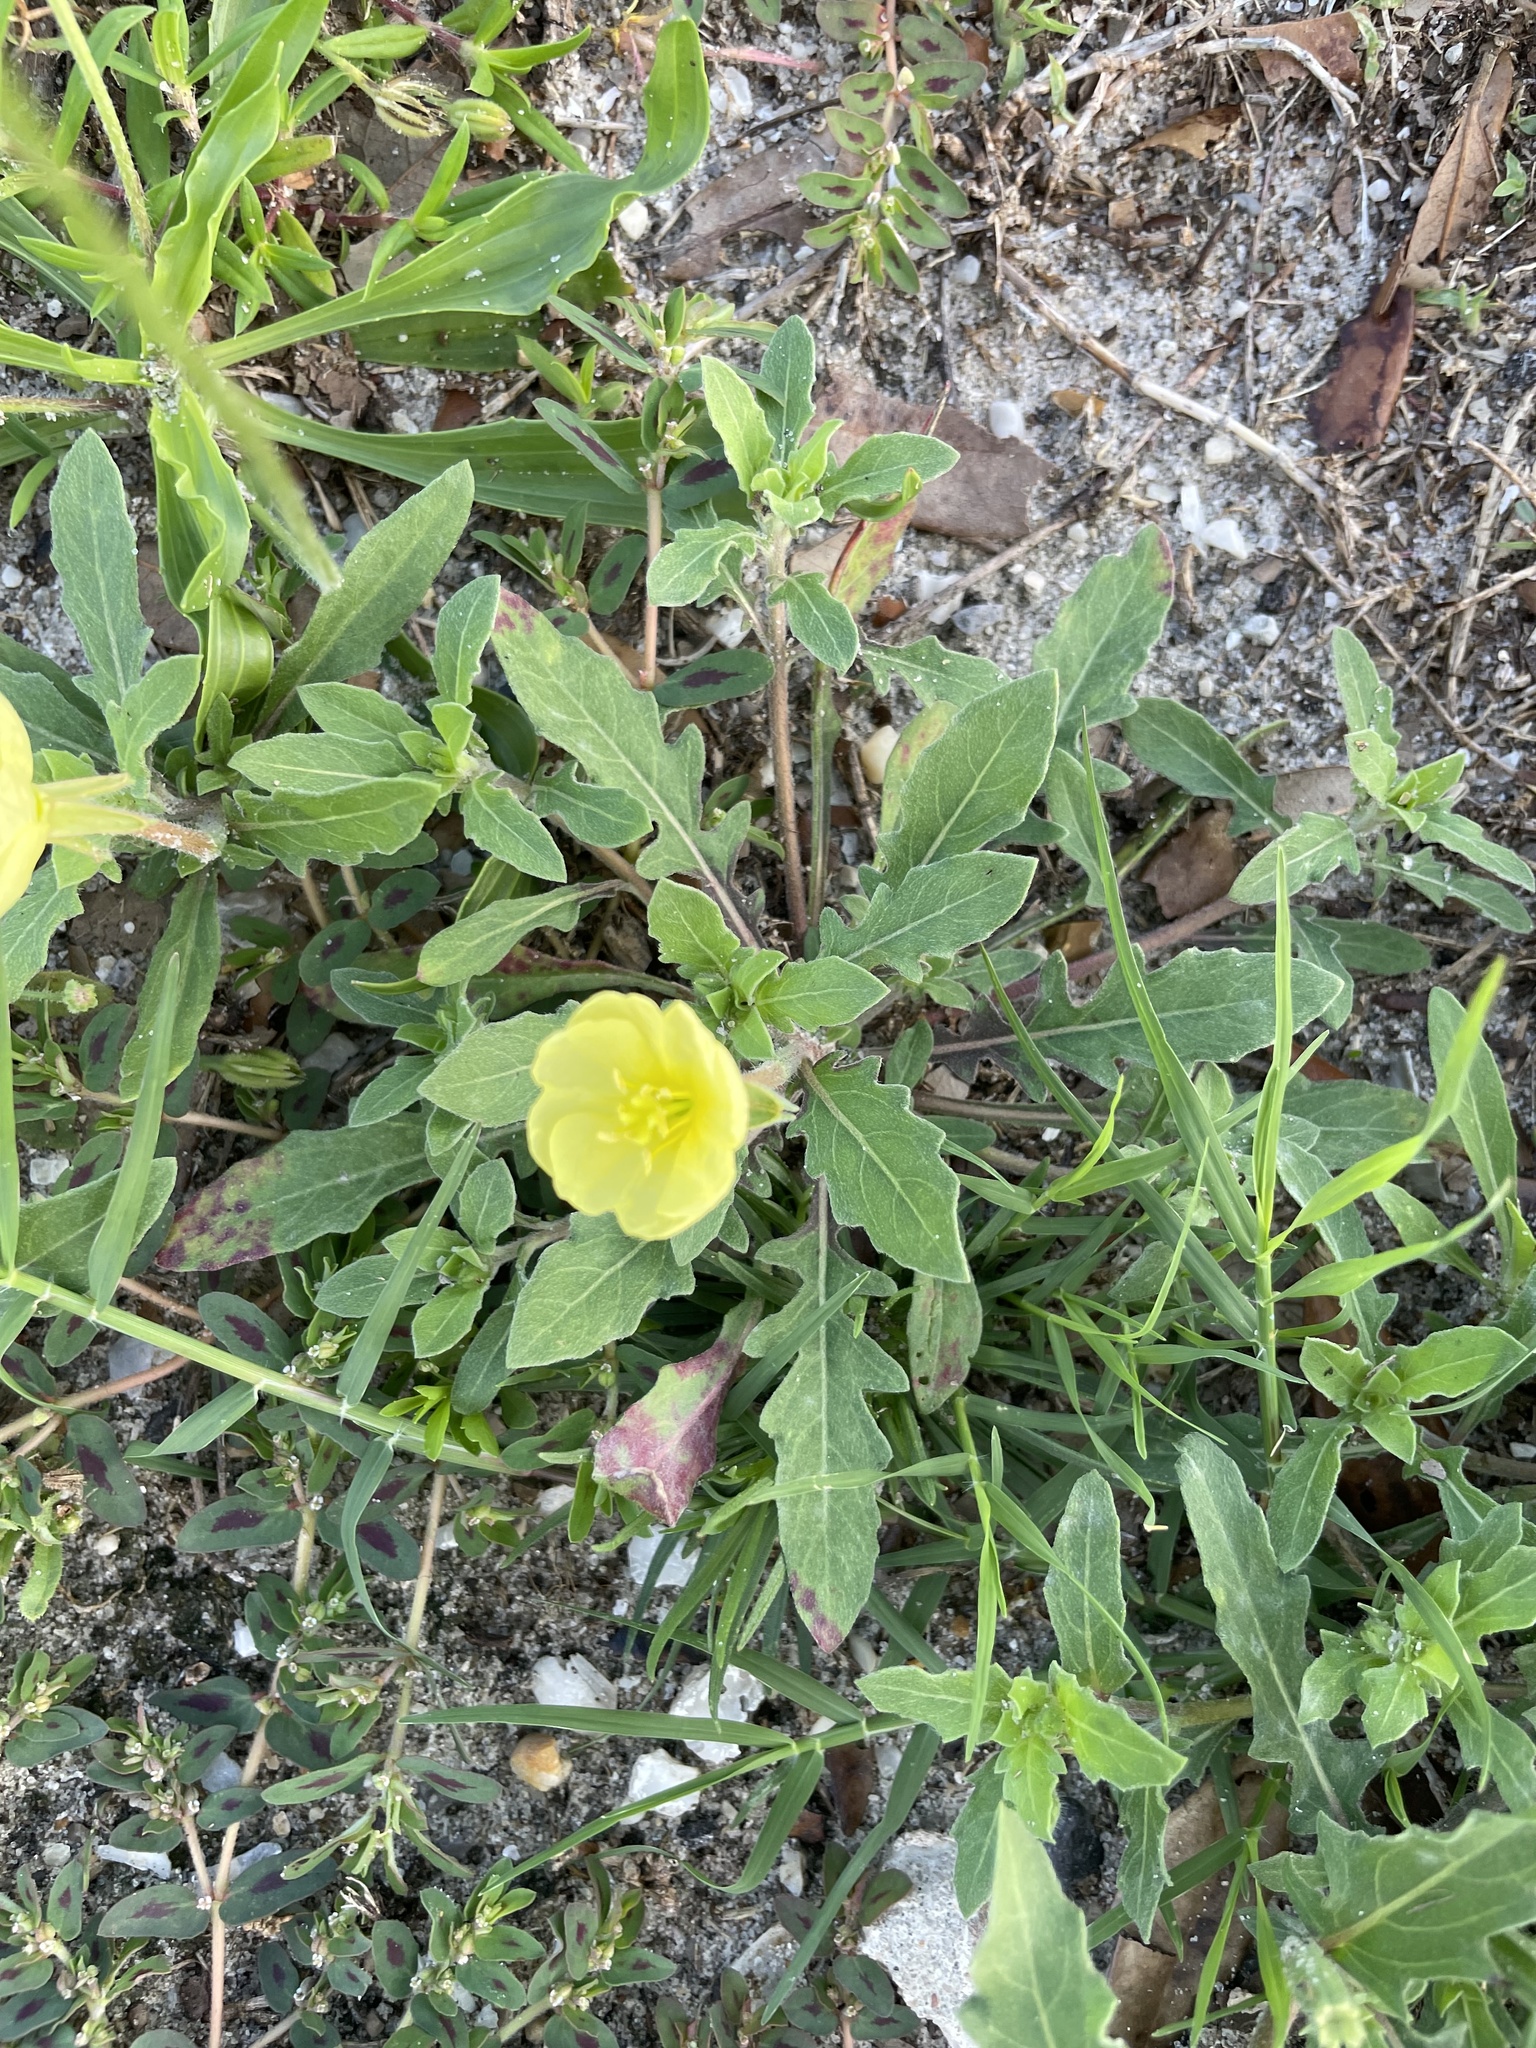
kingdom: Plantae
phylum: Tracheophyta
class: Magnoliopsida
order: Myrtales
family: Onagraceae
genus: Oenothera
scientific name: Oenothera humifusa
